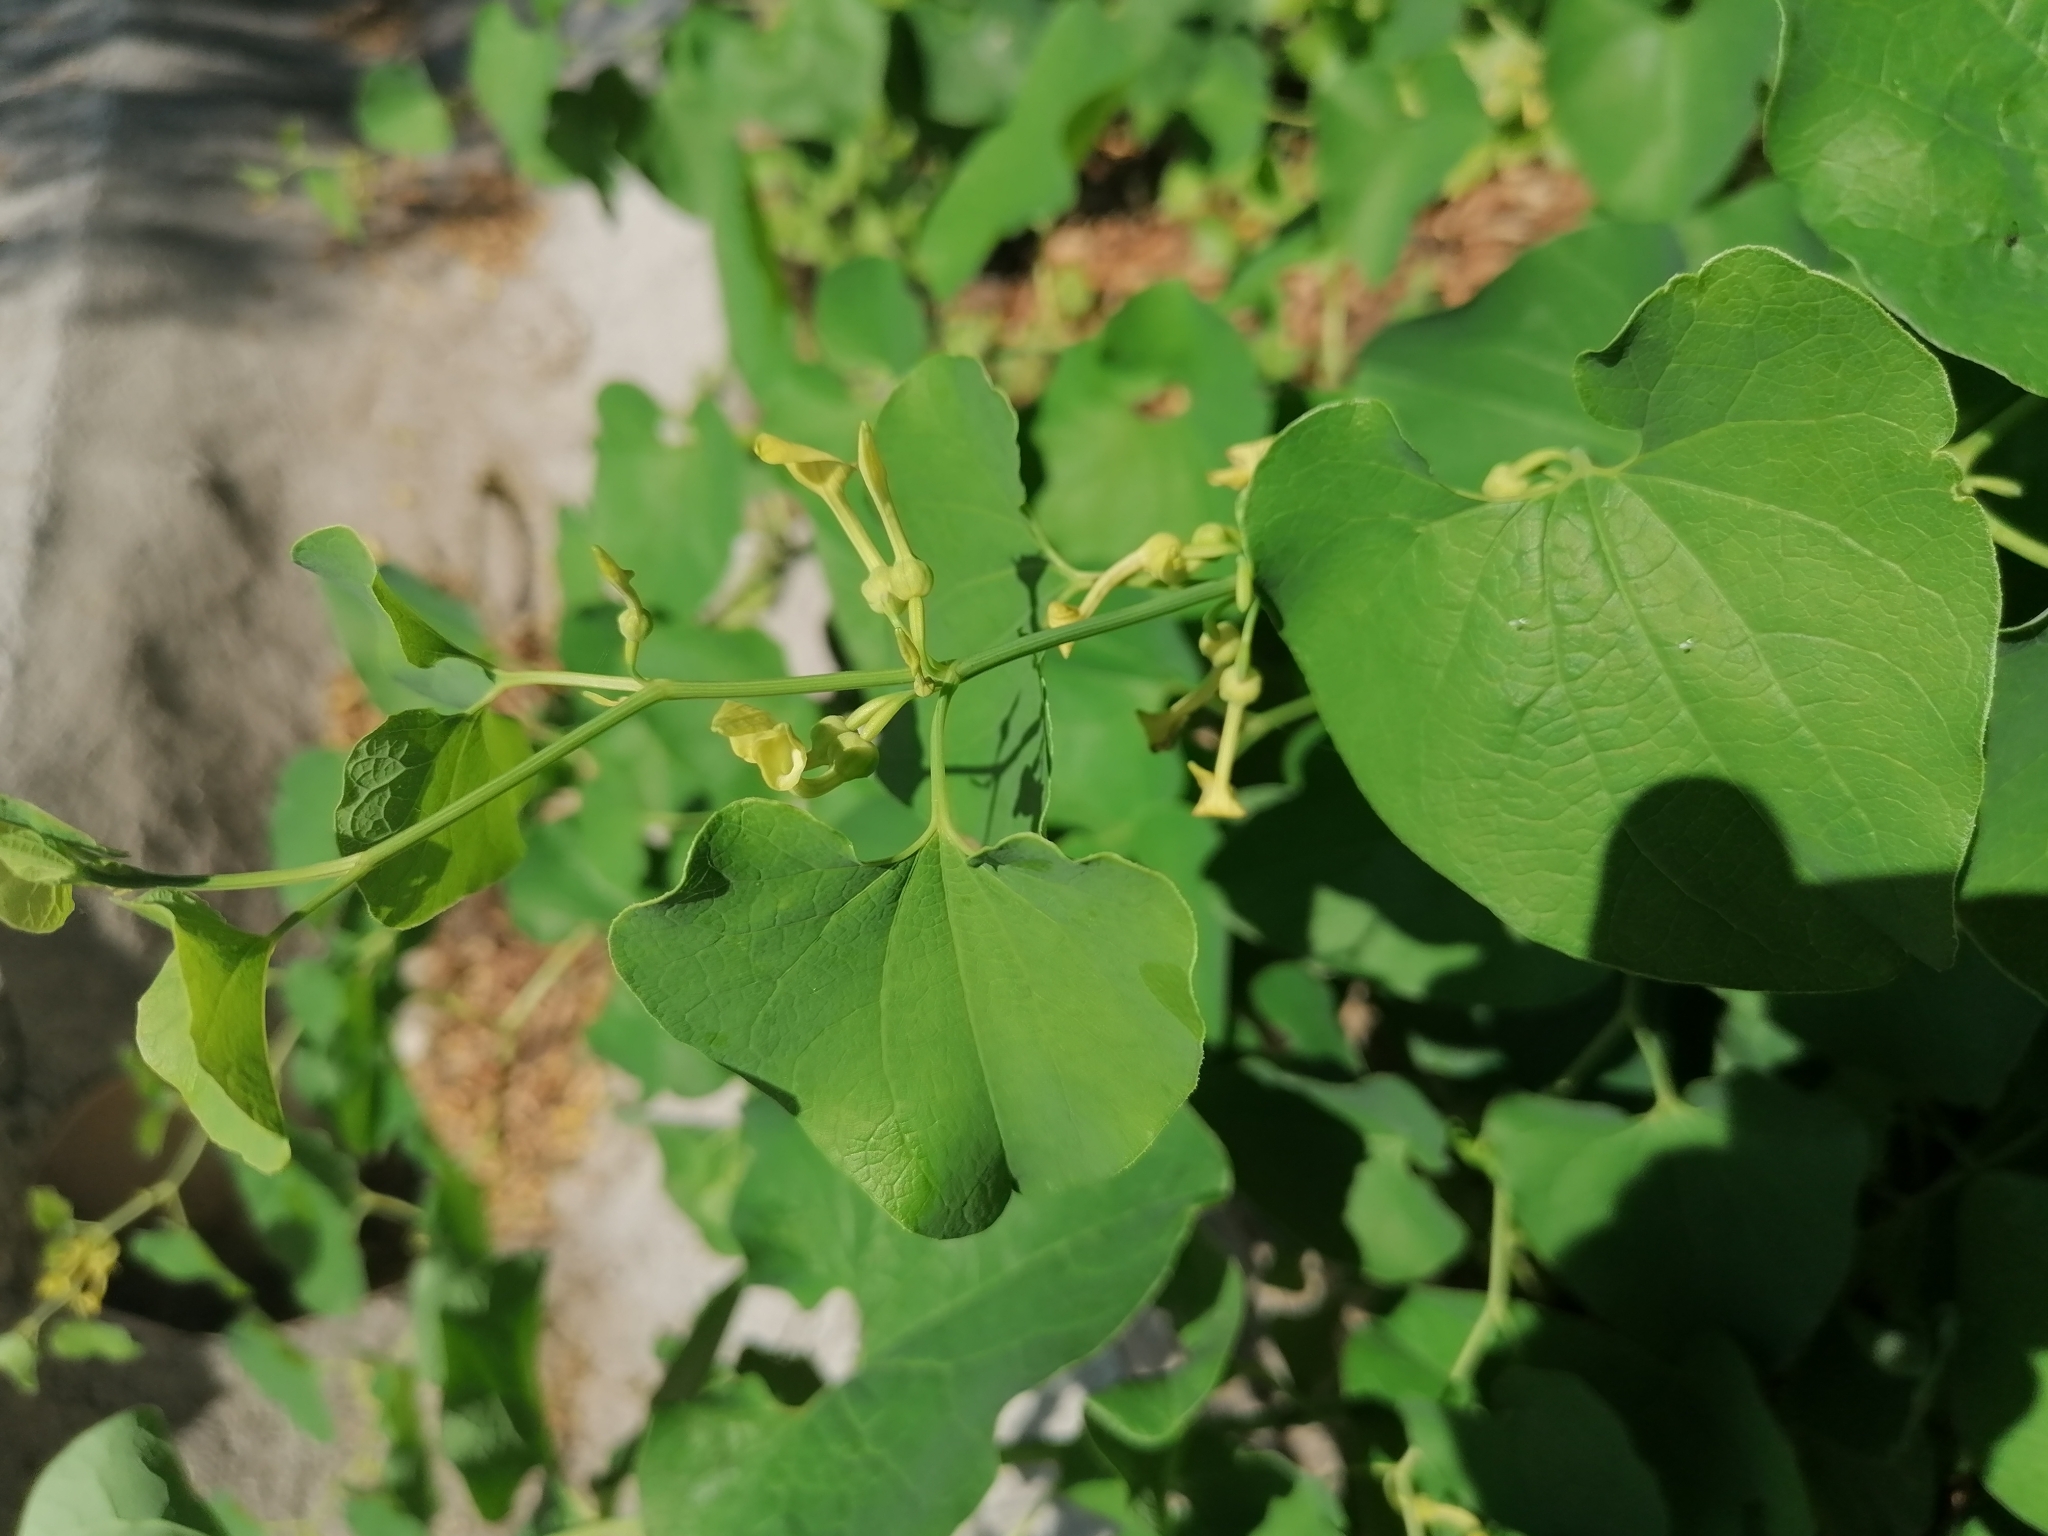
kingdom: Plantae
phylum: Tracheophyta
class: Magnoliopsida
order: Piperales
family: Aristolochiaceae
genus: Aristolochia
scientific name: Aristolochia clematitis
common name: Birthwort
